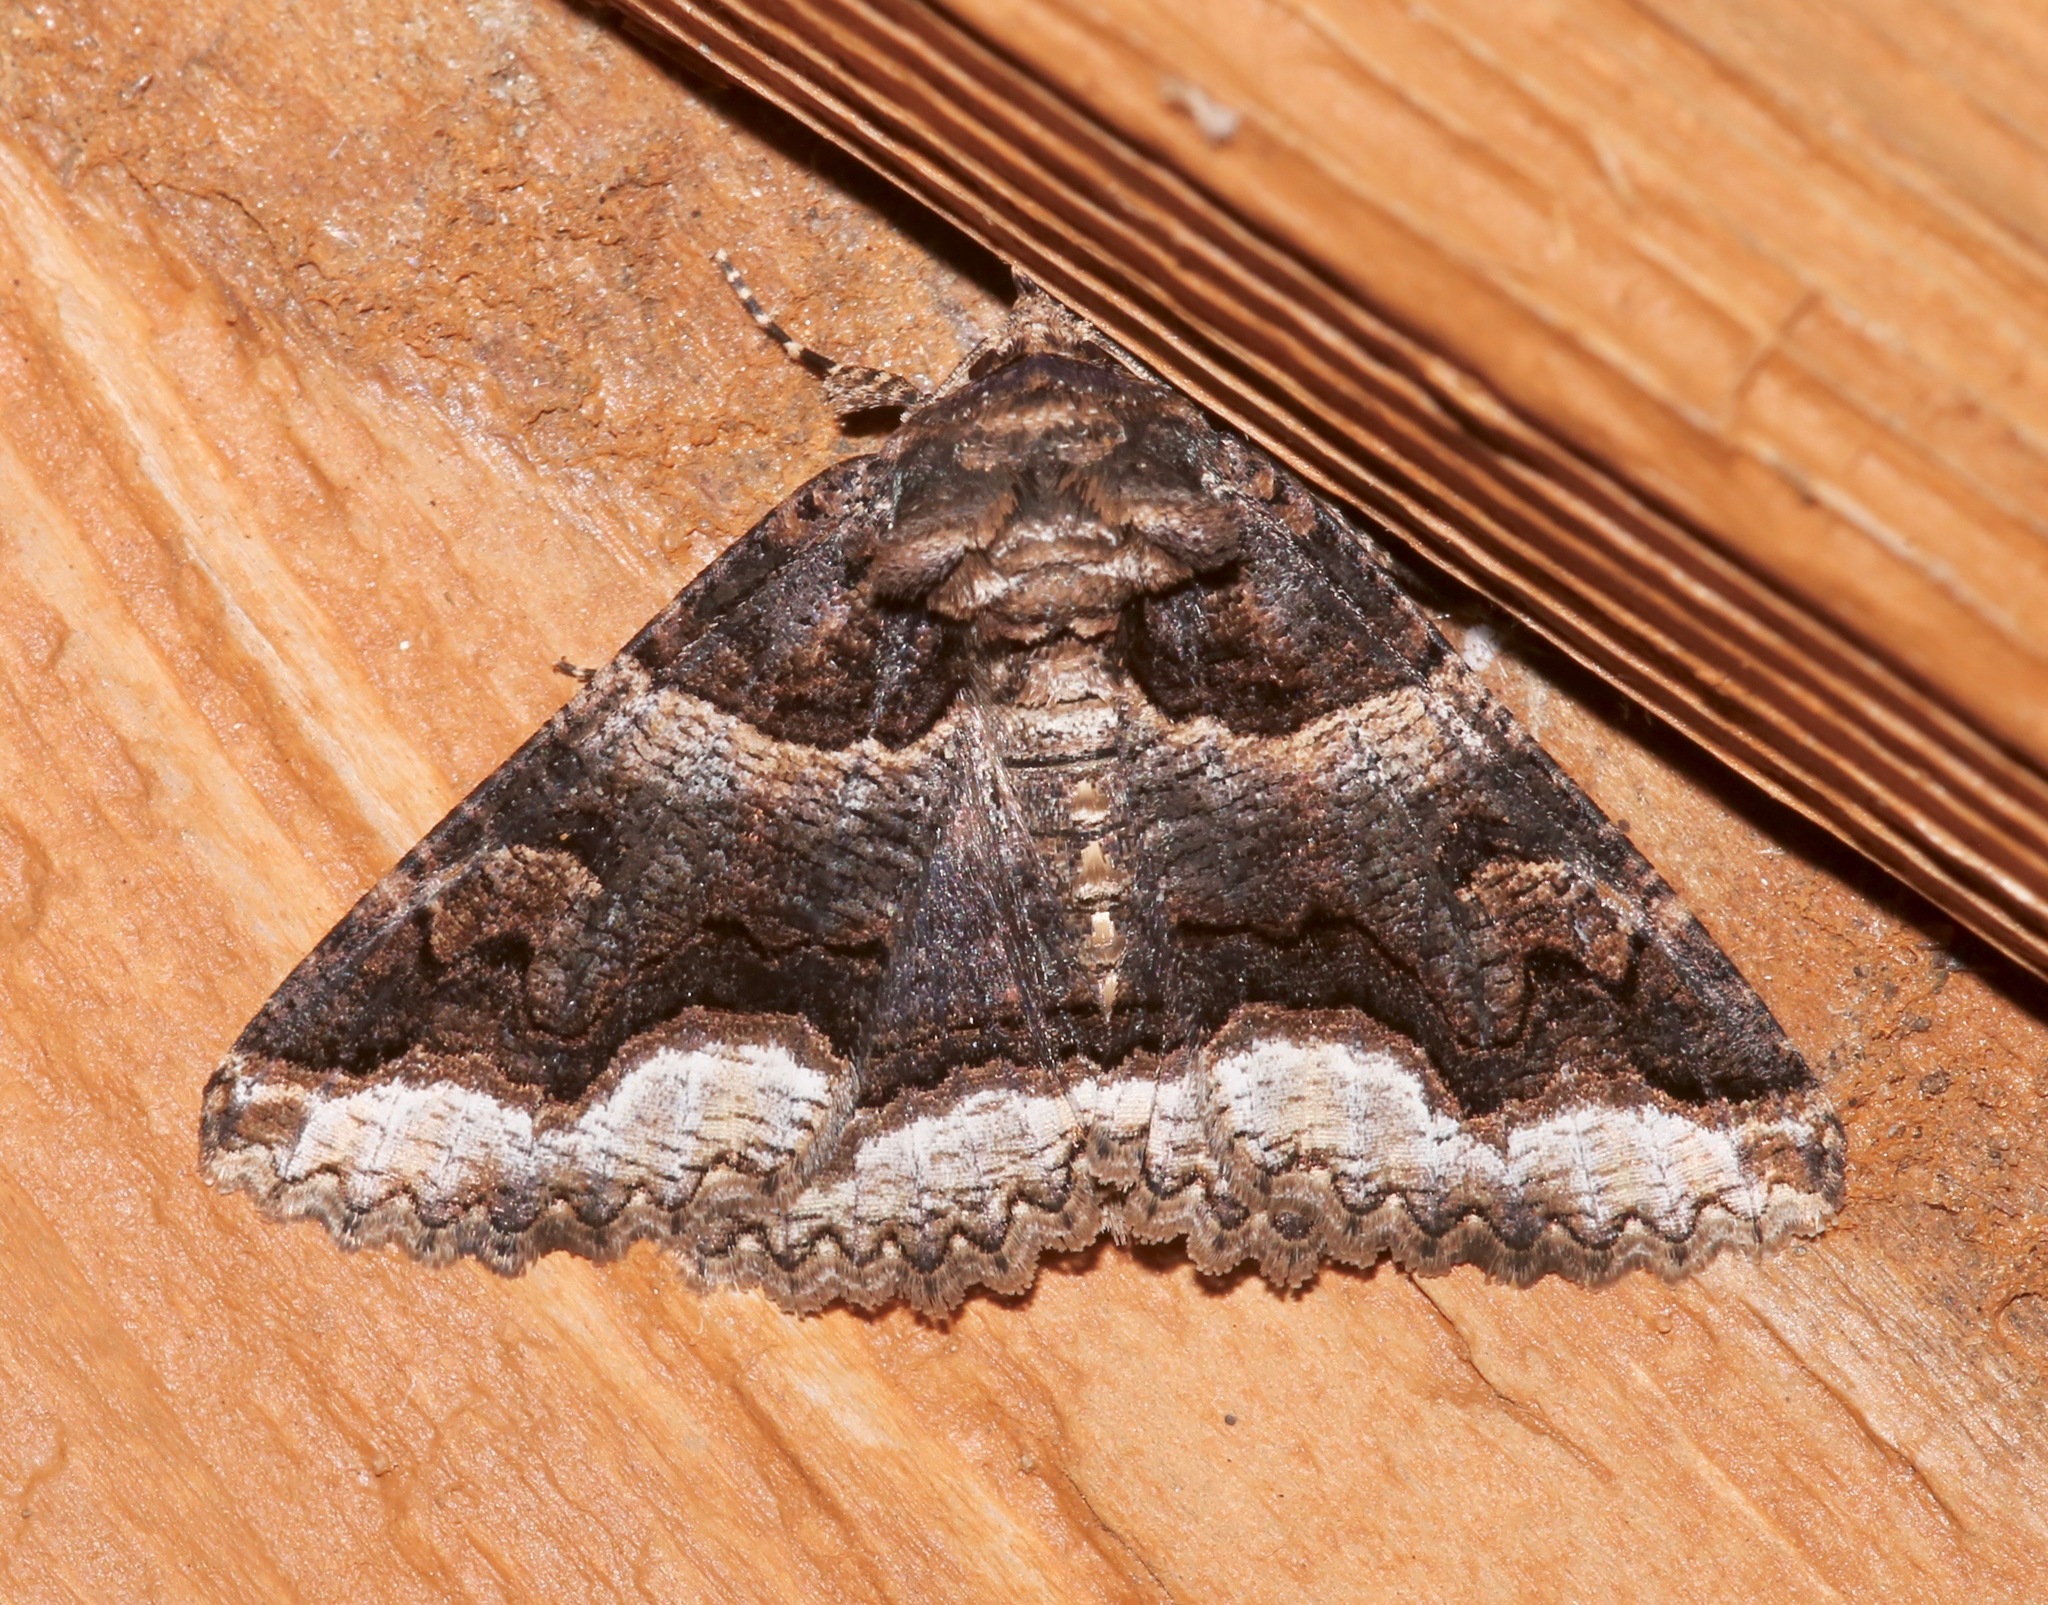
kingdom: Animalia
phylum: Arthropoda
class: Insecta
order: Lepidoptera
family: Erebidae
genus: Zale
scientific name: Zale calycanthata
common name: Double-banded zale
